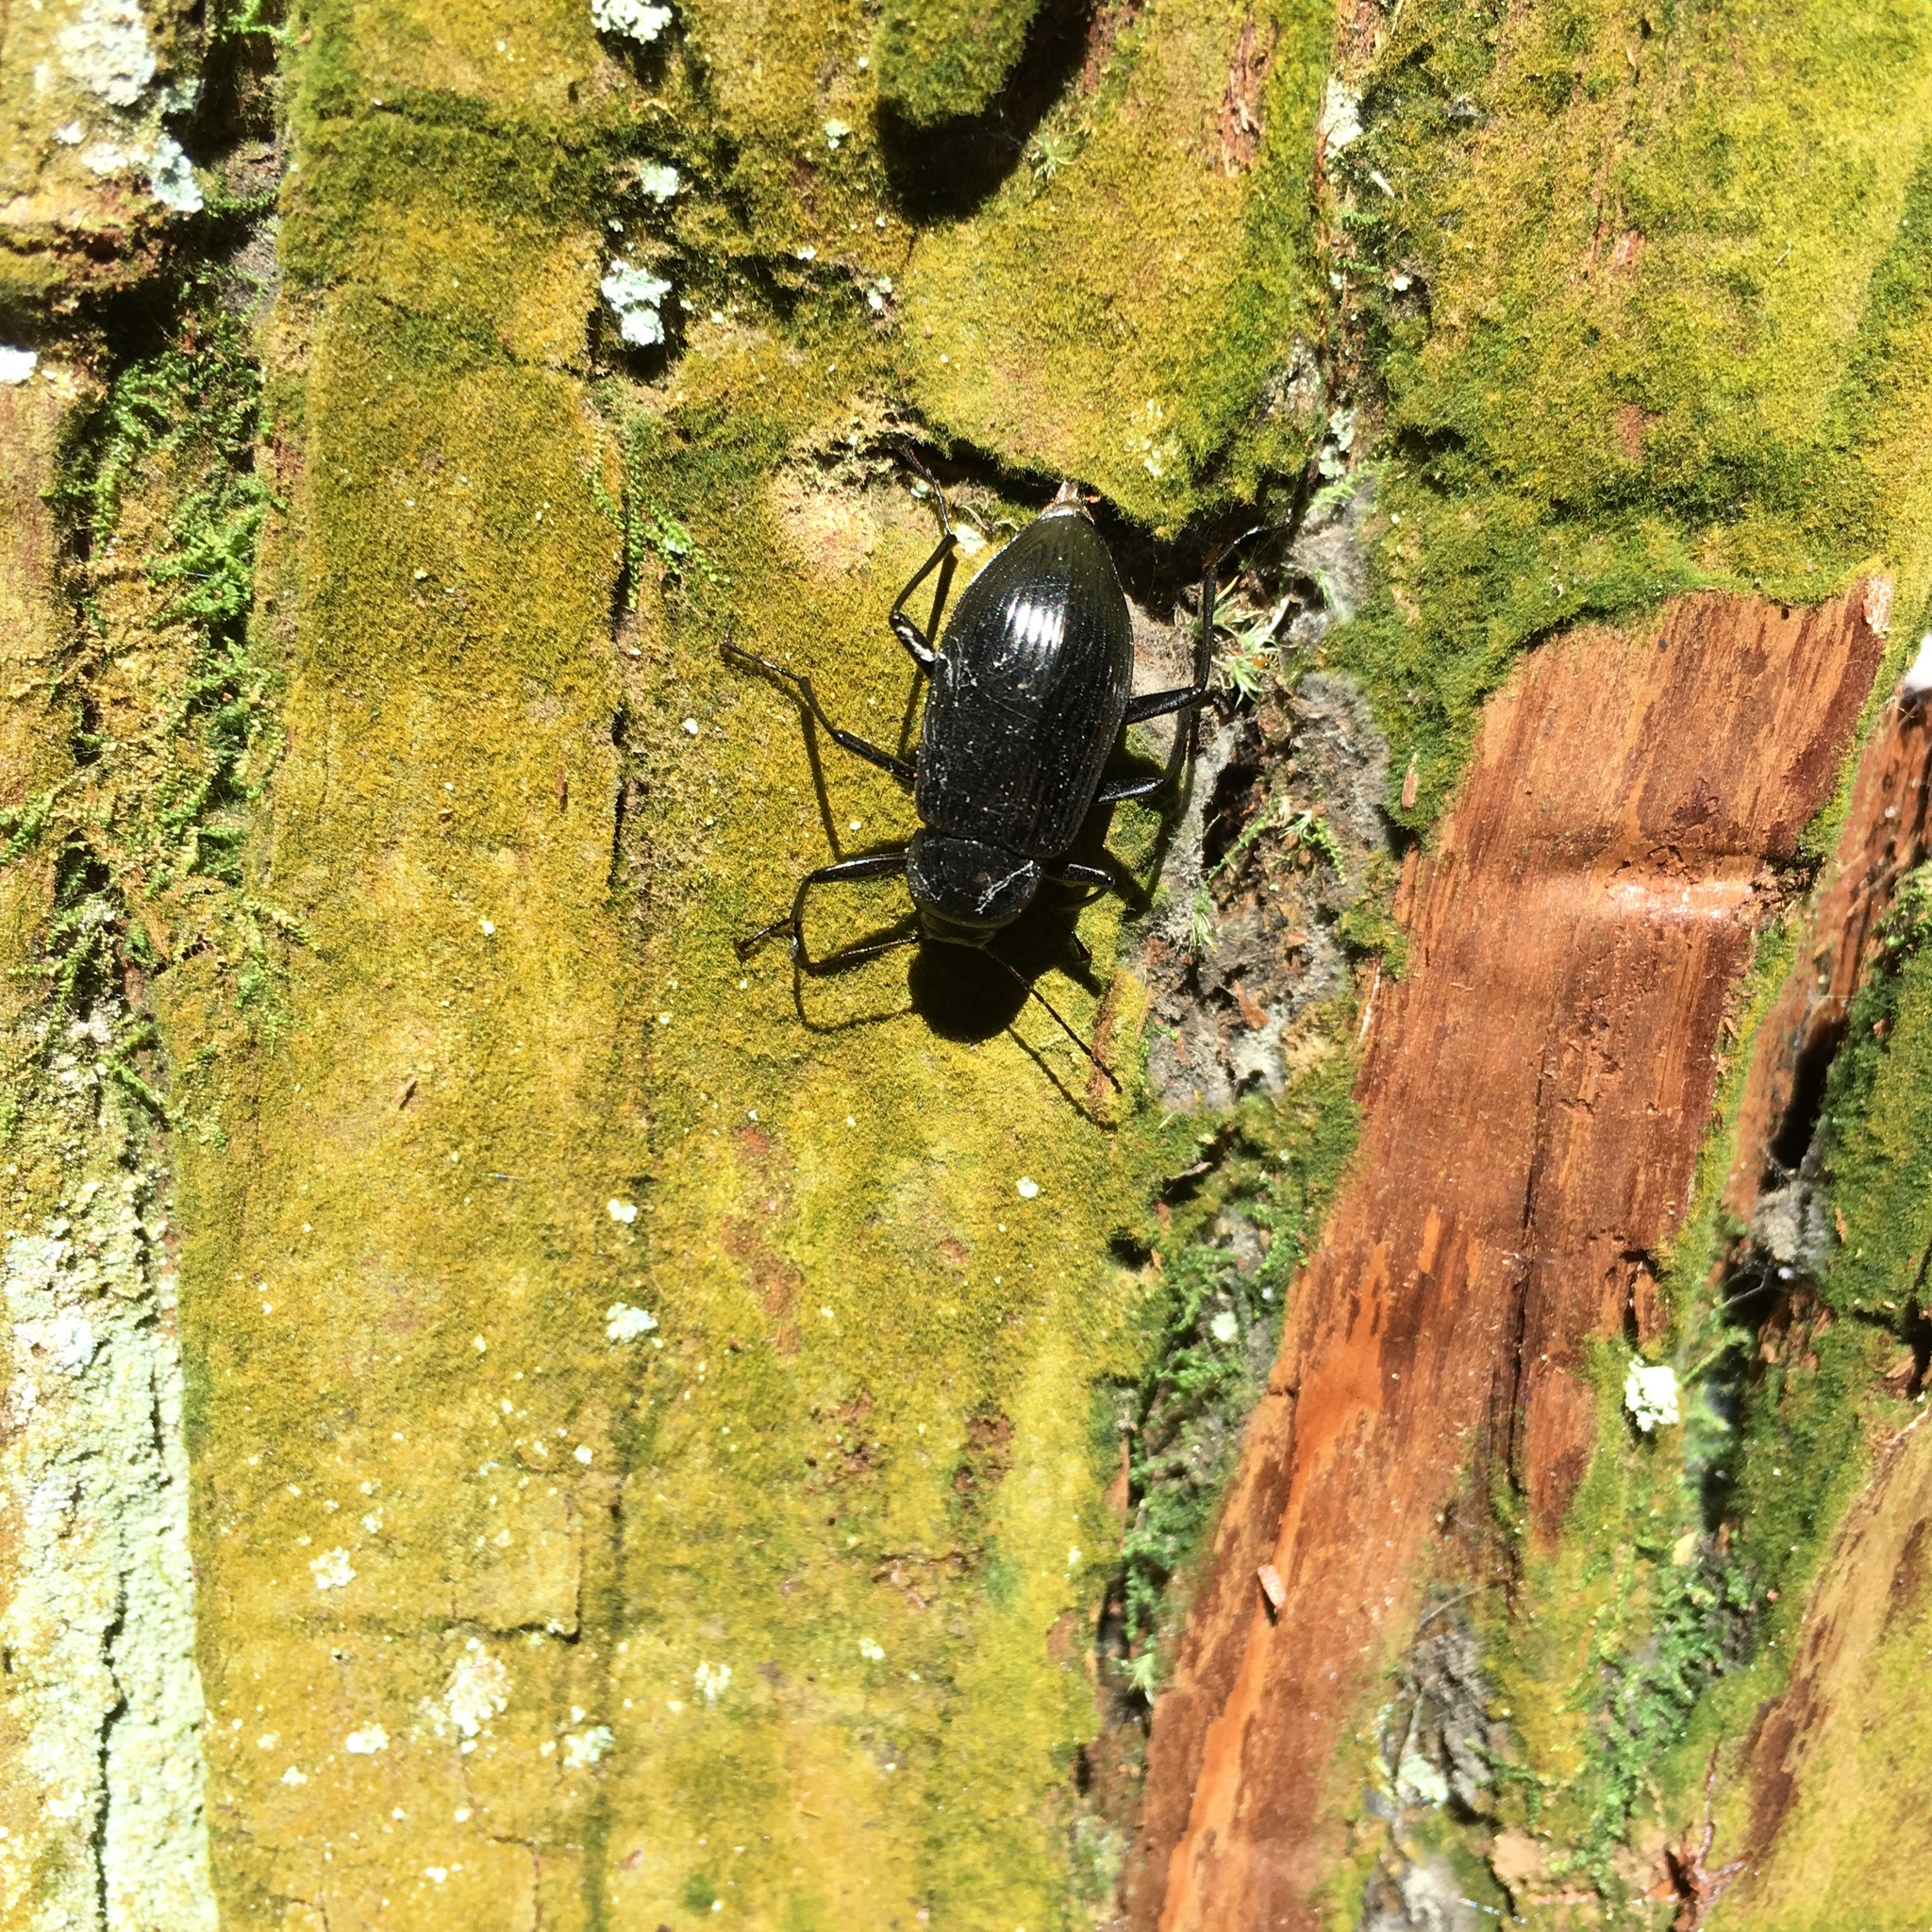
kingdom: Animalia
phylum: Arthropoda
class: Insecta
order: Coleoptera
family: Tenebrionidae
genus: Plesiophthalmus
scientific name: Plesiophthalmus
